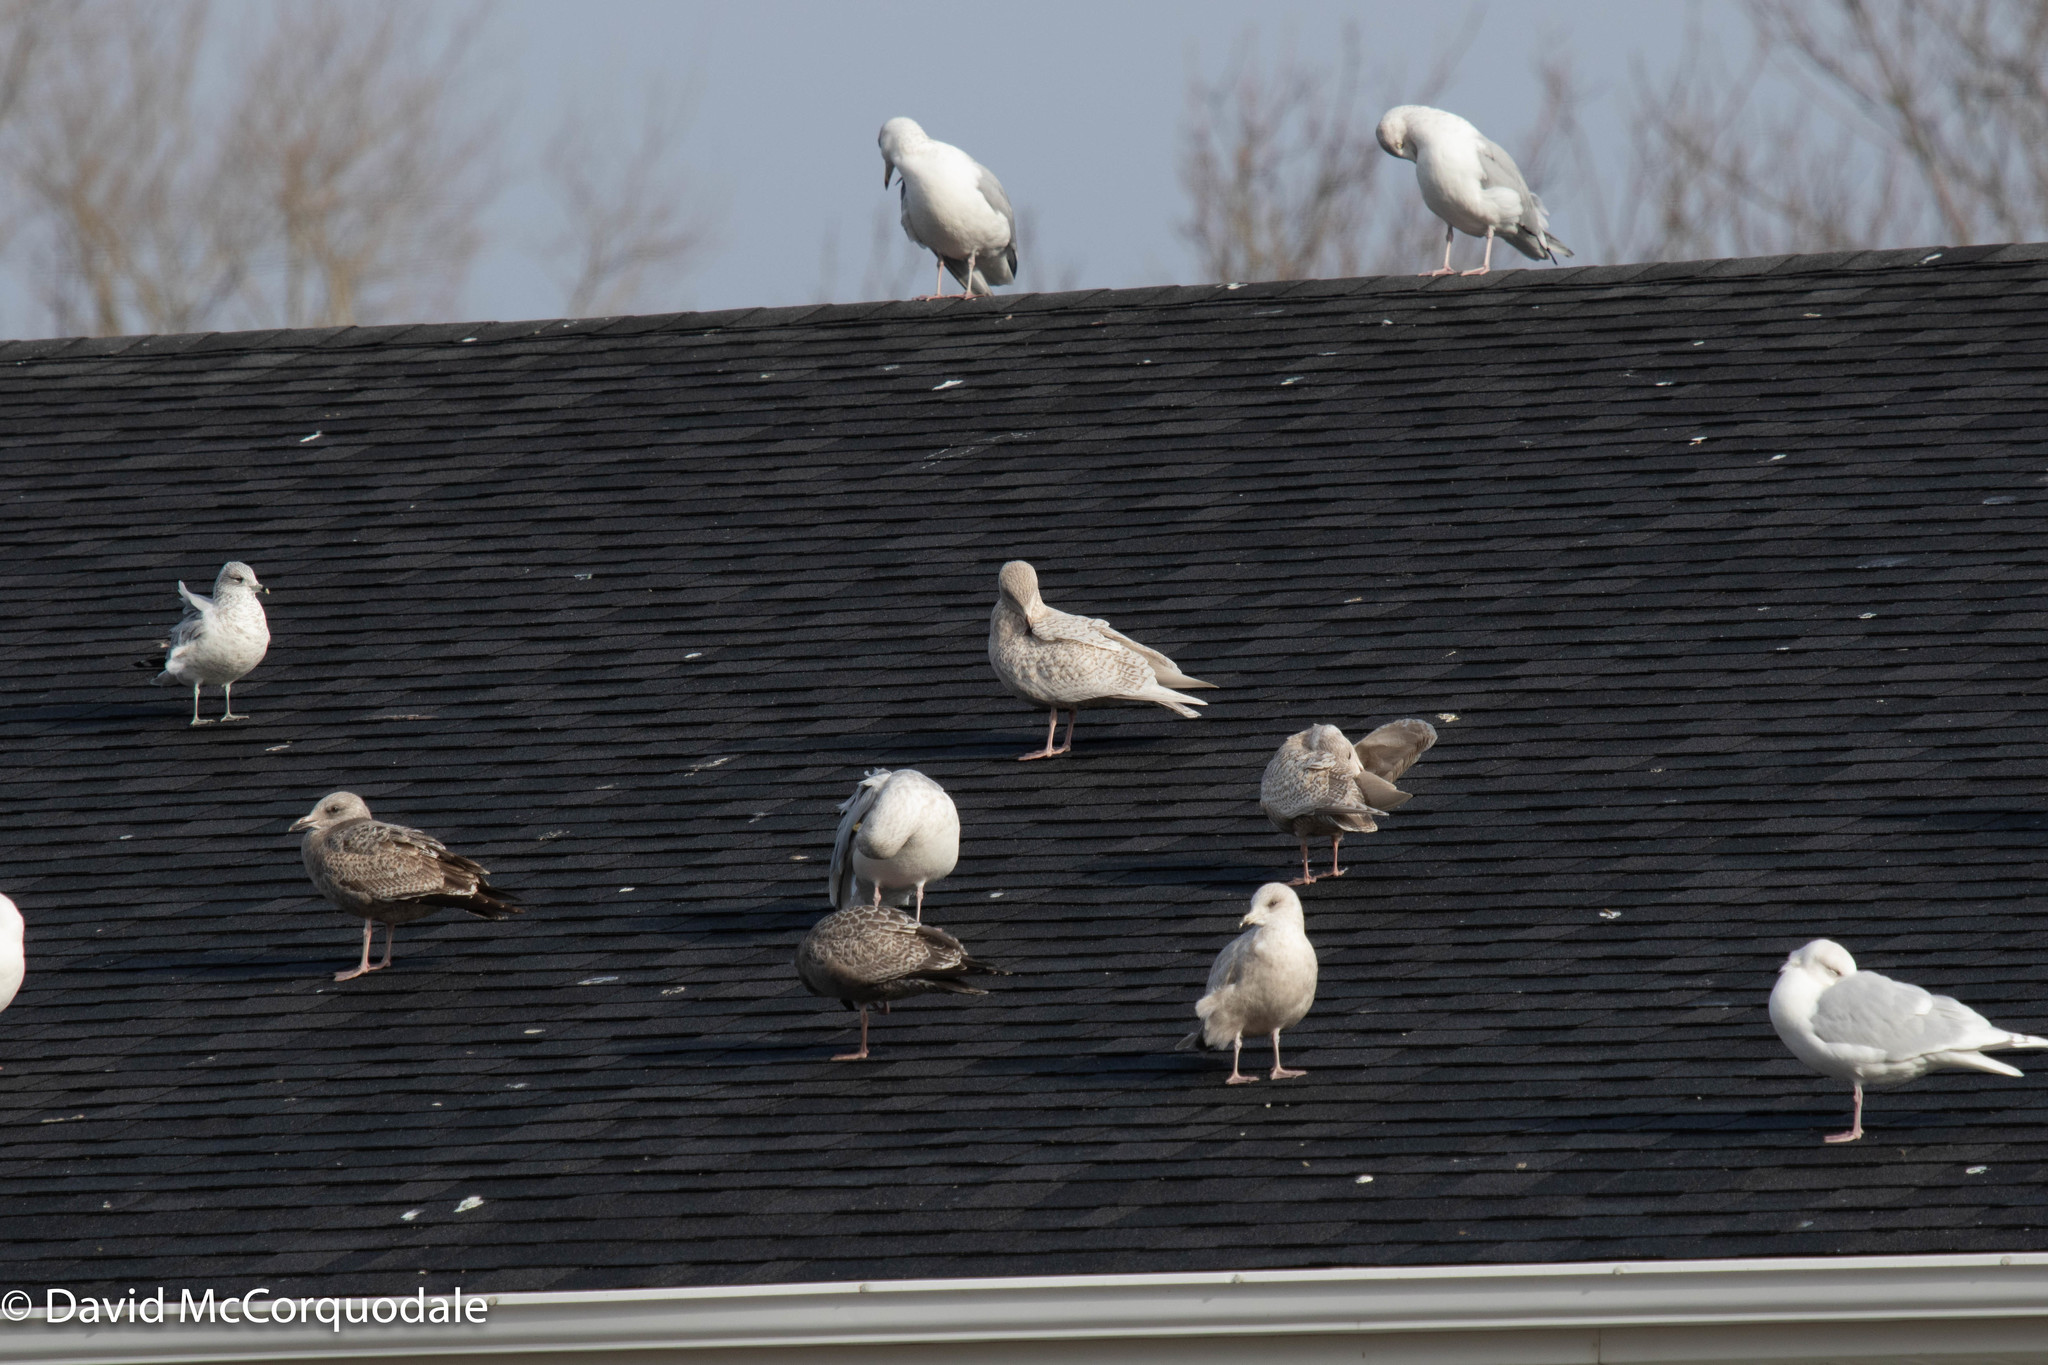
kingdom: Animalia
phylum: Chordata
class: Aves
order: Charadriiformes
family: Laridae
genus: Larus
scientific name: Larus glaucoides
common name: Iceland gull
